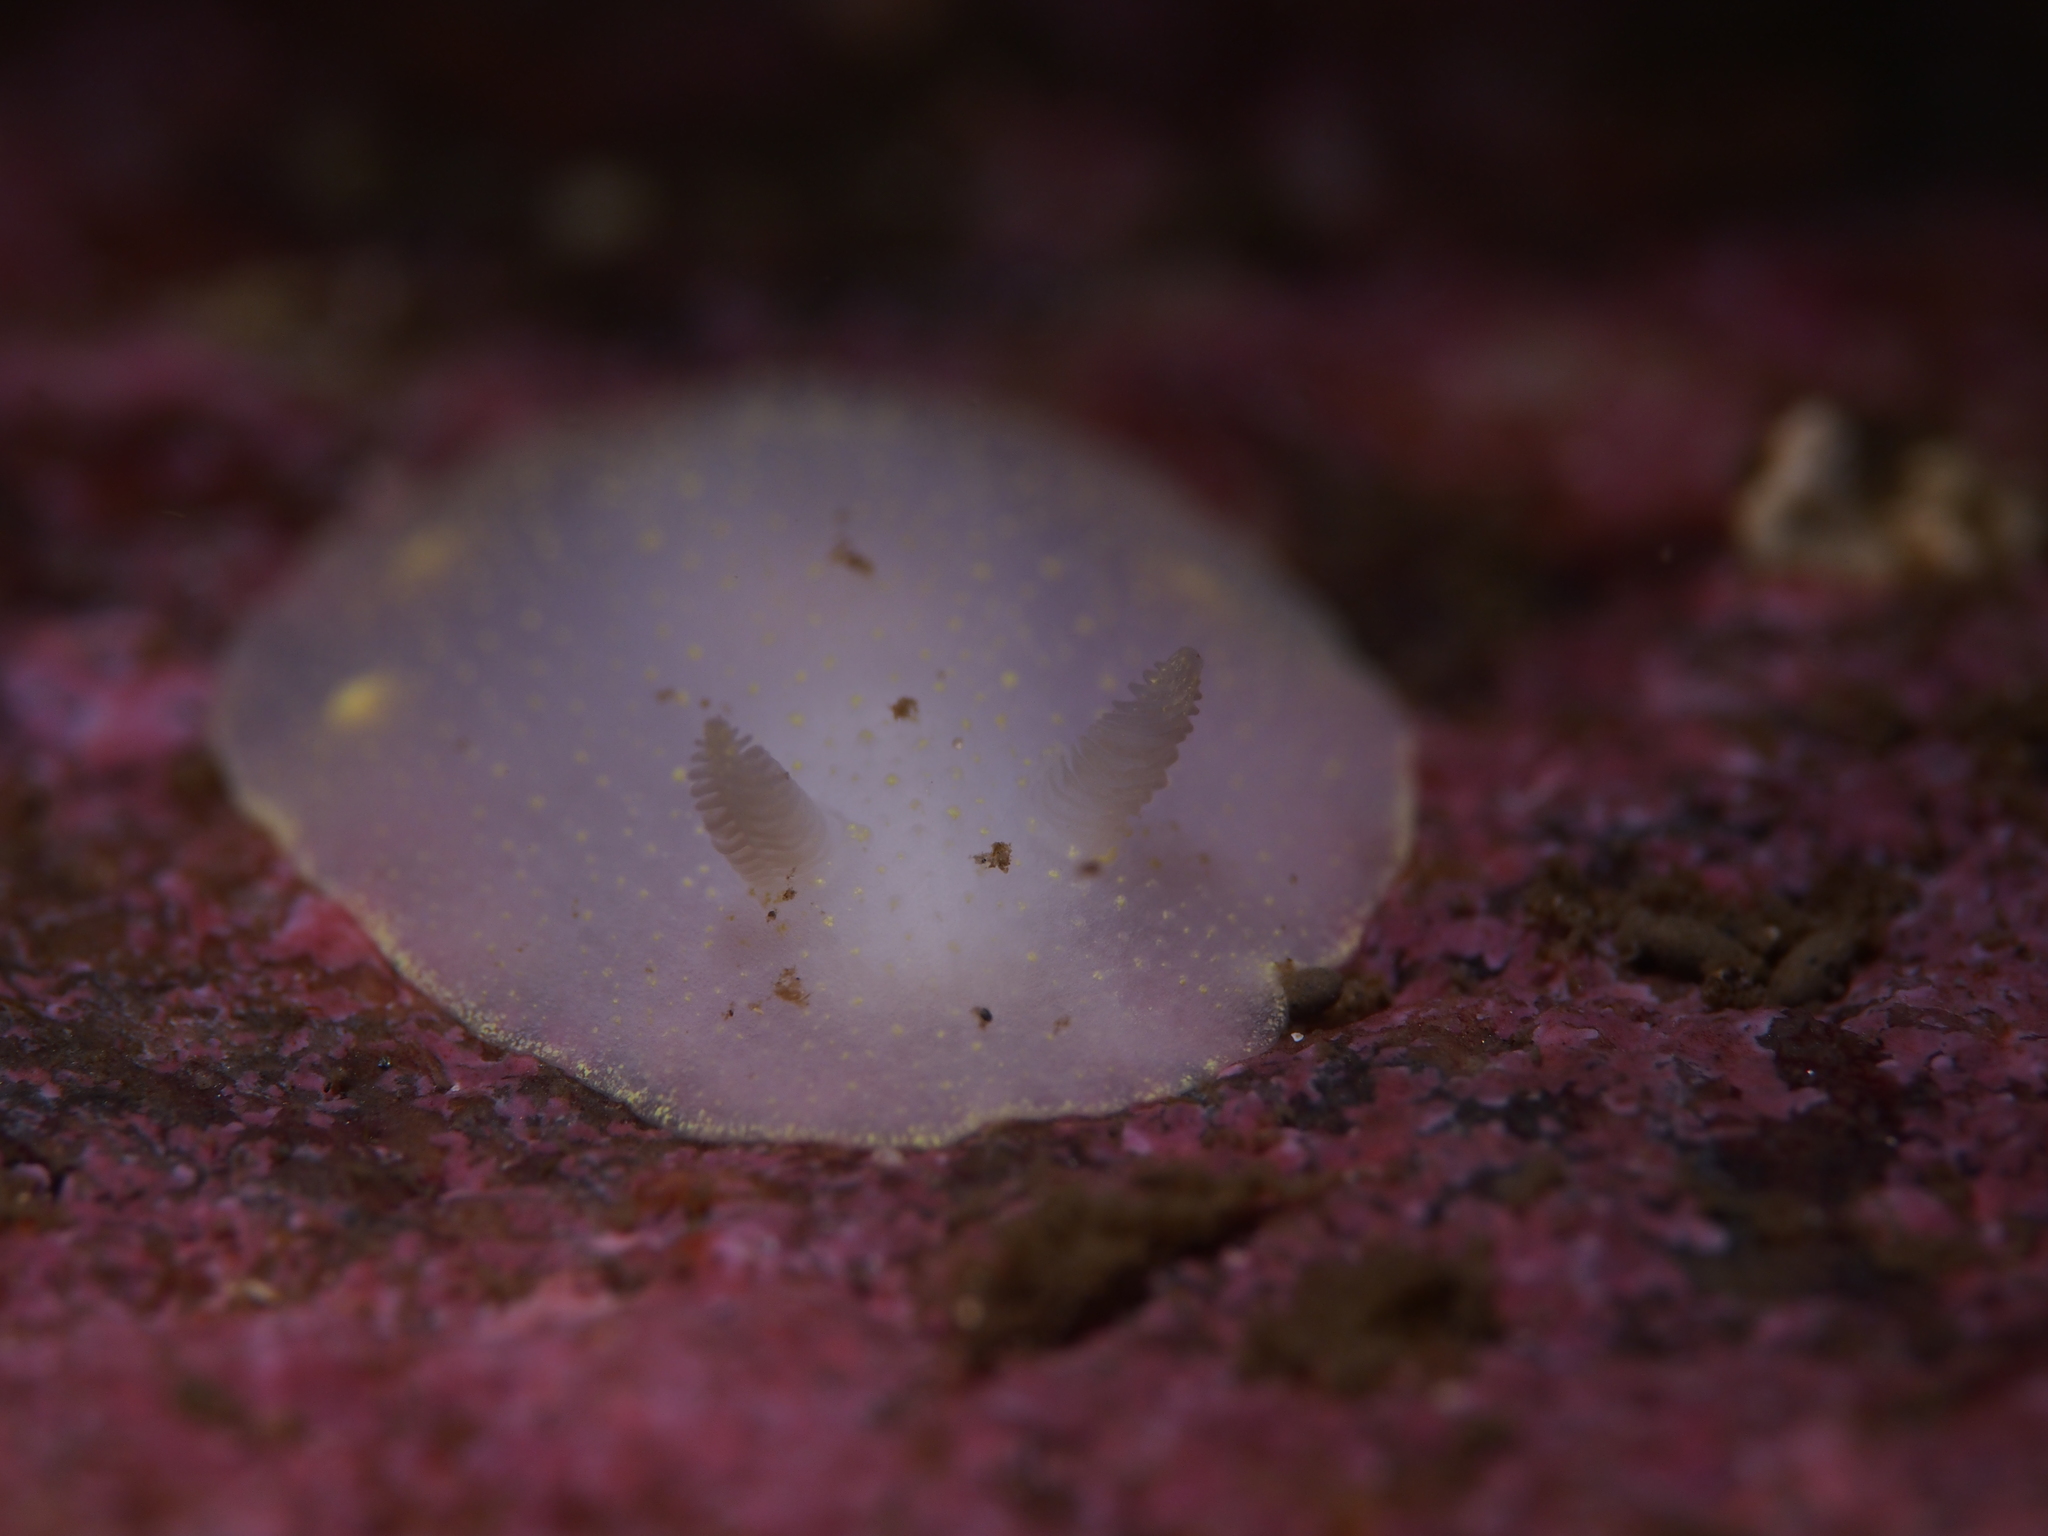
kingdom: Animalia
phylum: Mollusca
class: Gastropoda
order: Nudibranchia
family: Cadlinidae
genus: Cadlina
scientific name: Cadlina laevis
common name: White atlantic cadlina
